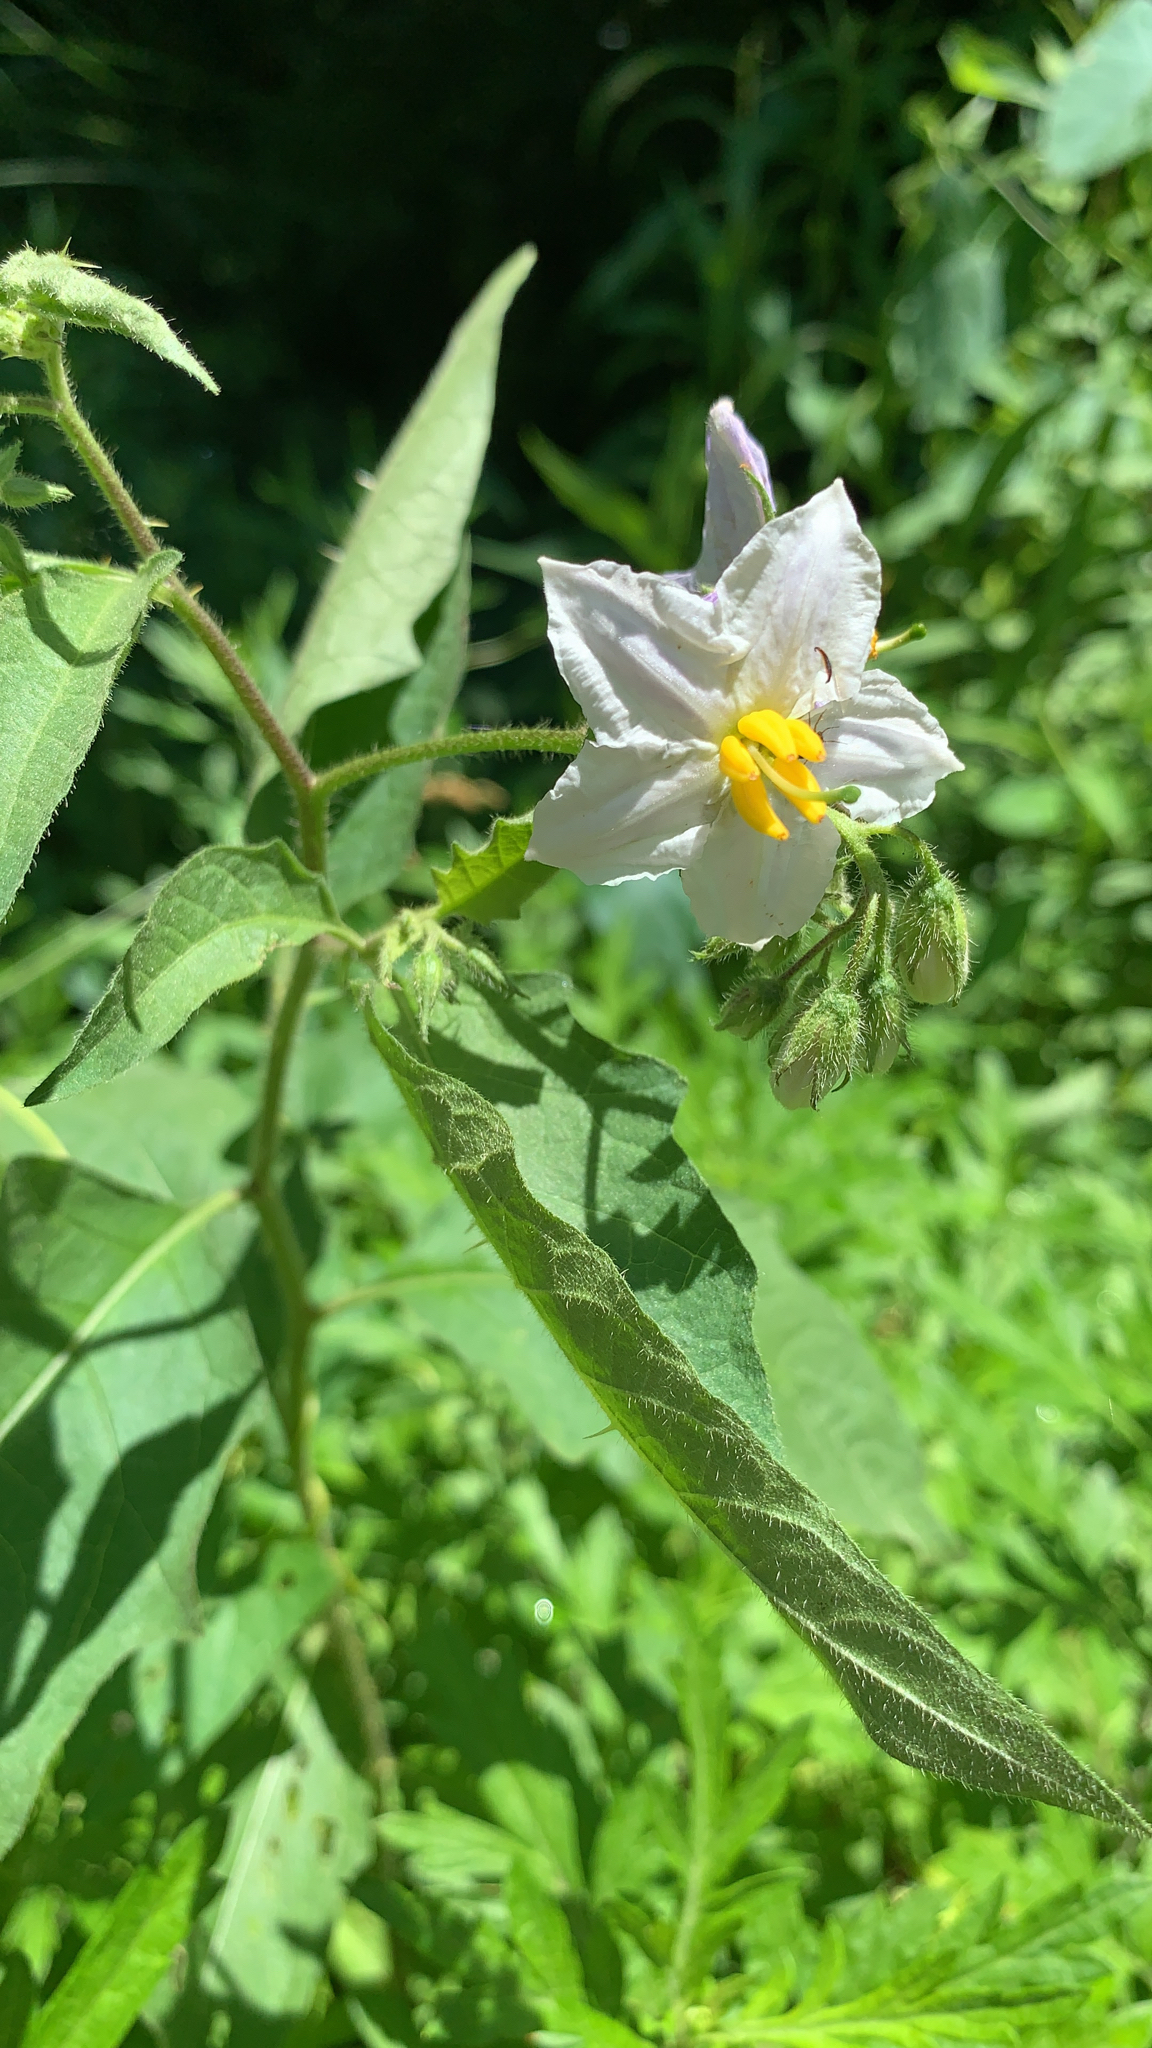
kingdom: Plantae
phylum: Tracheophyta
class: Magnoliopsida
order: Solanales
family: Solanaceae
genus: Solanum
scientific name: Solanum carolinense
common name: Horse-nettle
